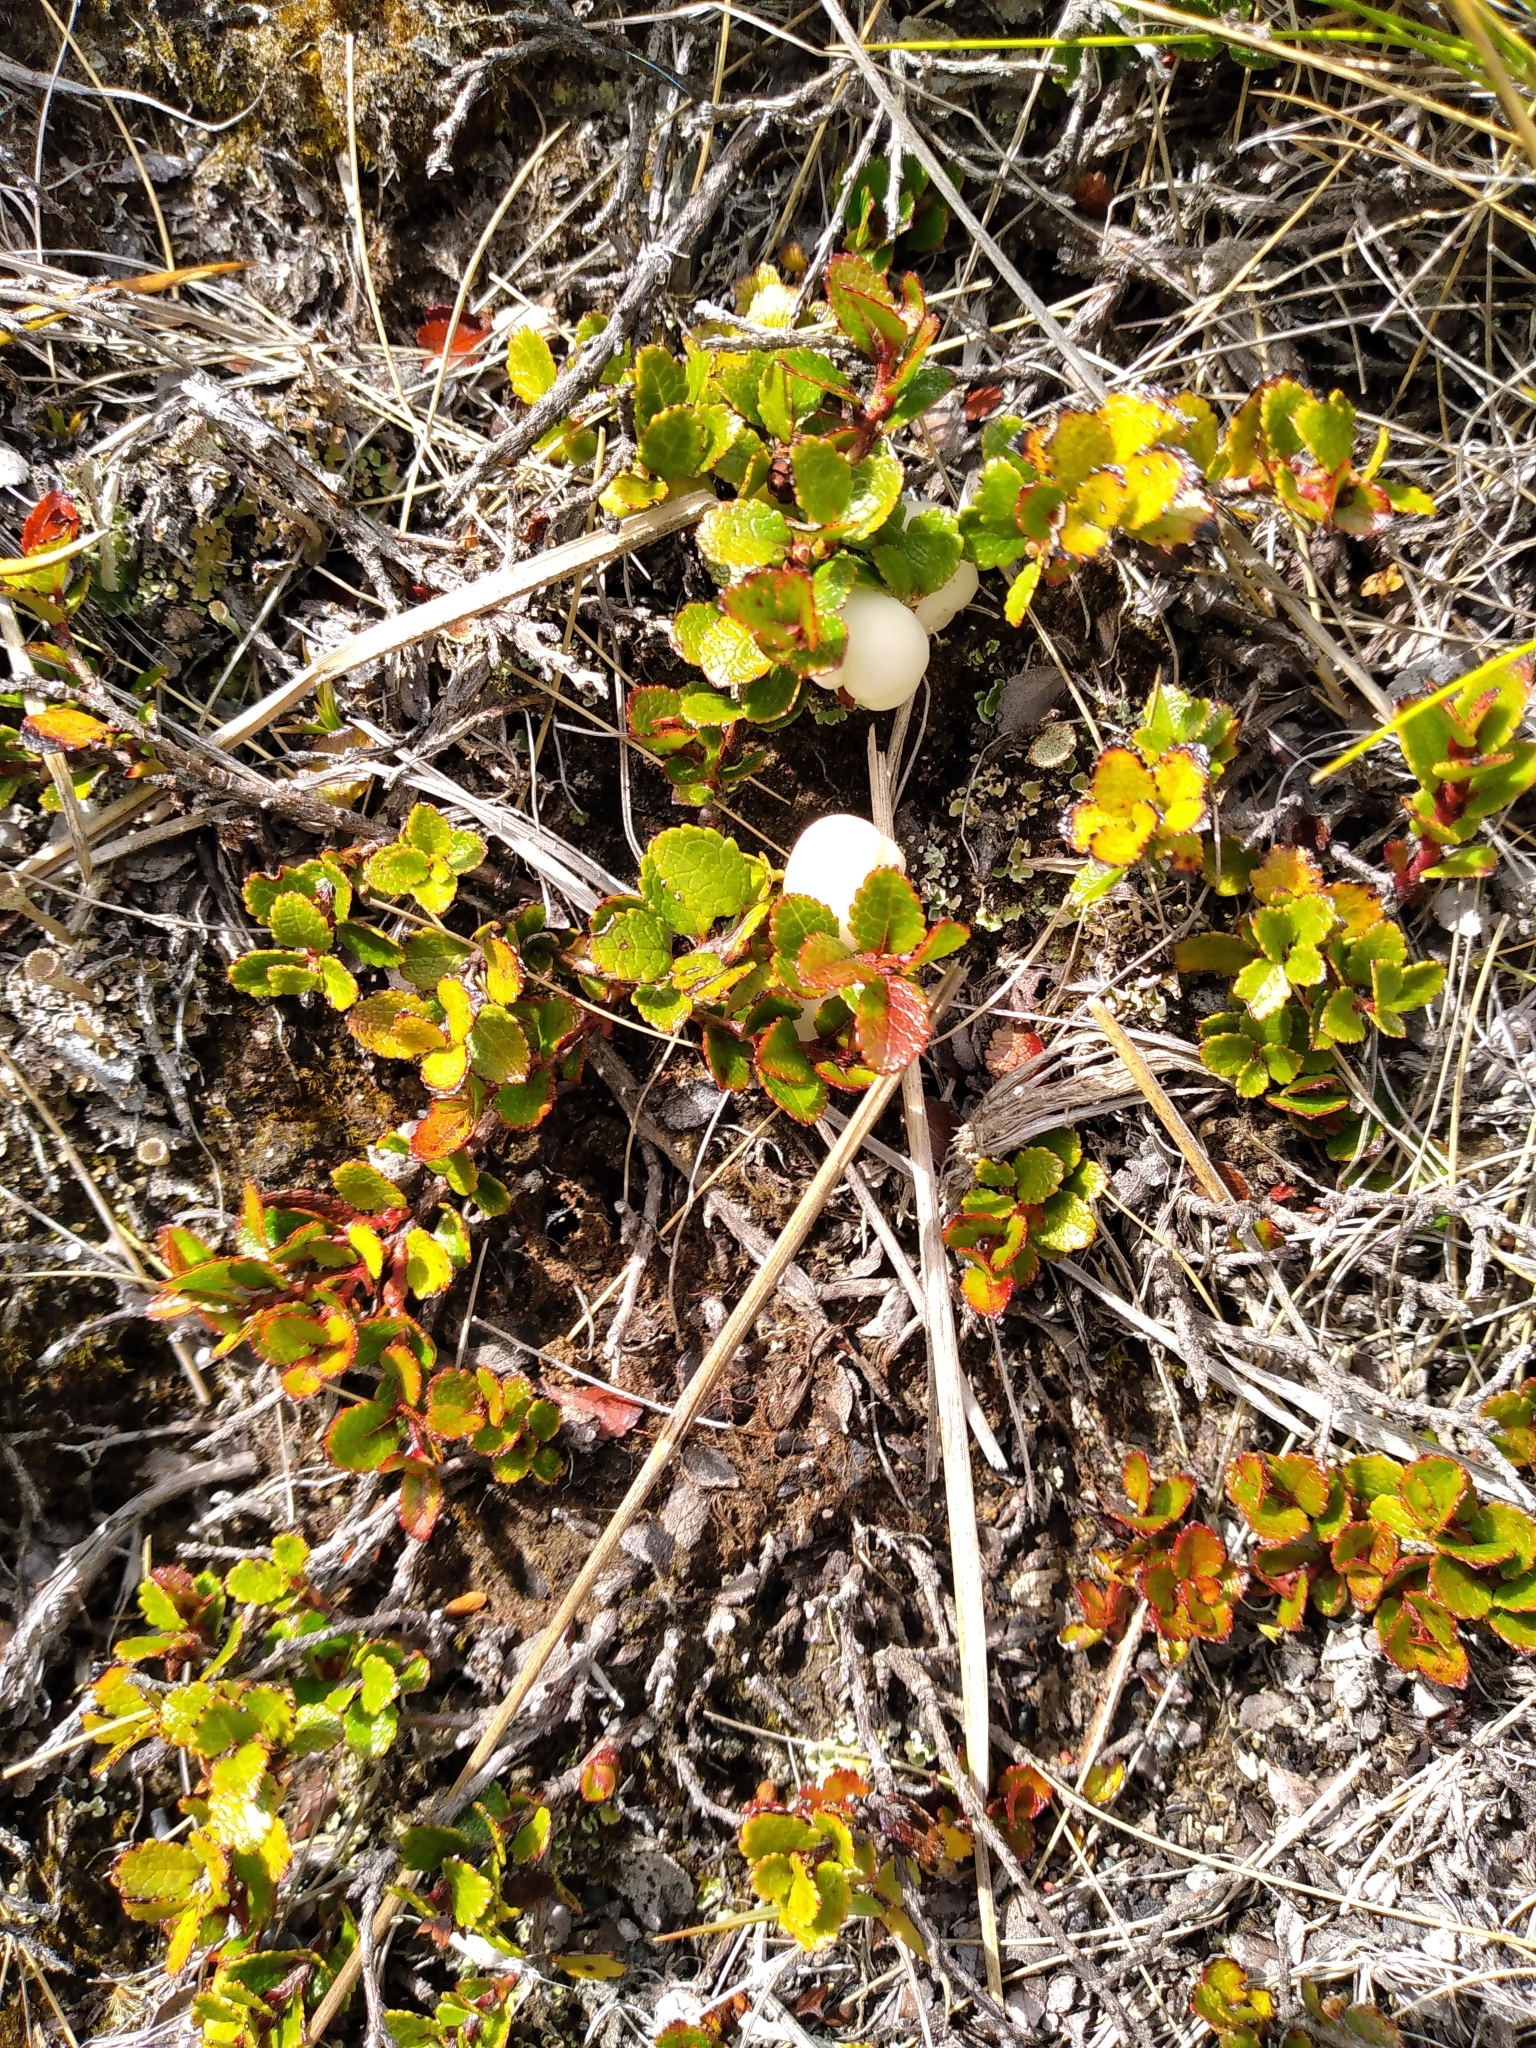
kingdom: Plantae
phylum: Tracheophyta
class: Magnoliopsida
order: Ericales
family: Ericaceae
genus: Gaultheria
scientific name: Gaultheria depressa
